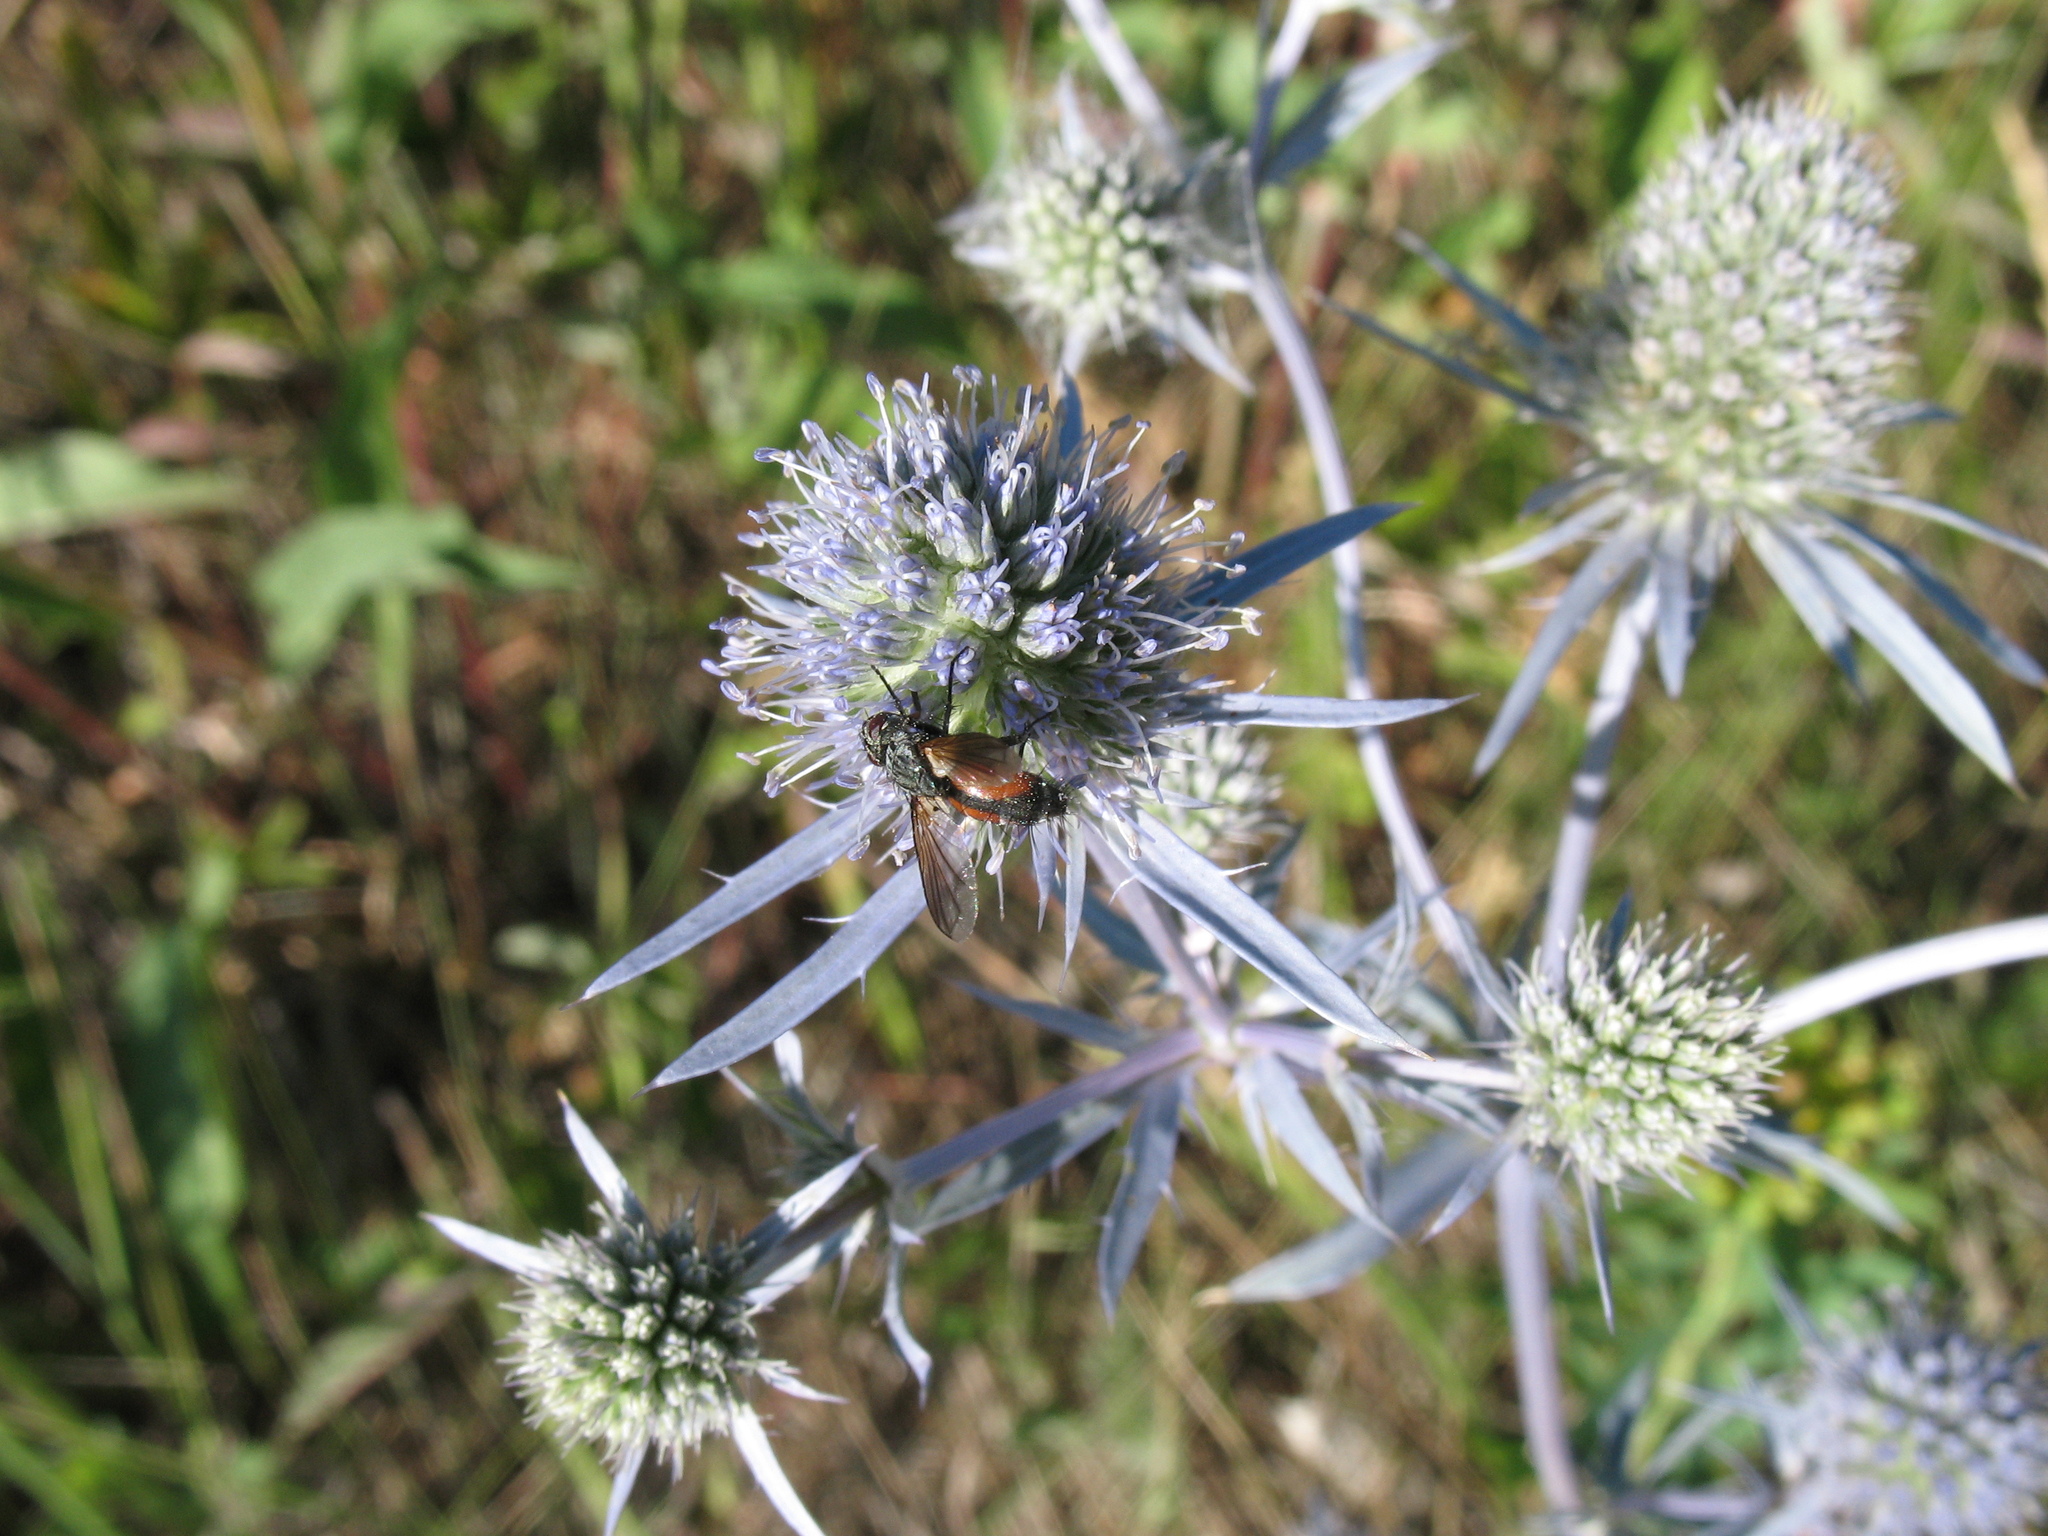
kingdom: Plantae
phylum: Tracheophyta
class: Magnoliopsida
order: Apiales
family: Apiaceae
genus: Eryngium
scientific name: Eryngium planum
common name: Blue eryngo
